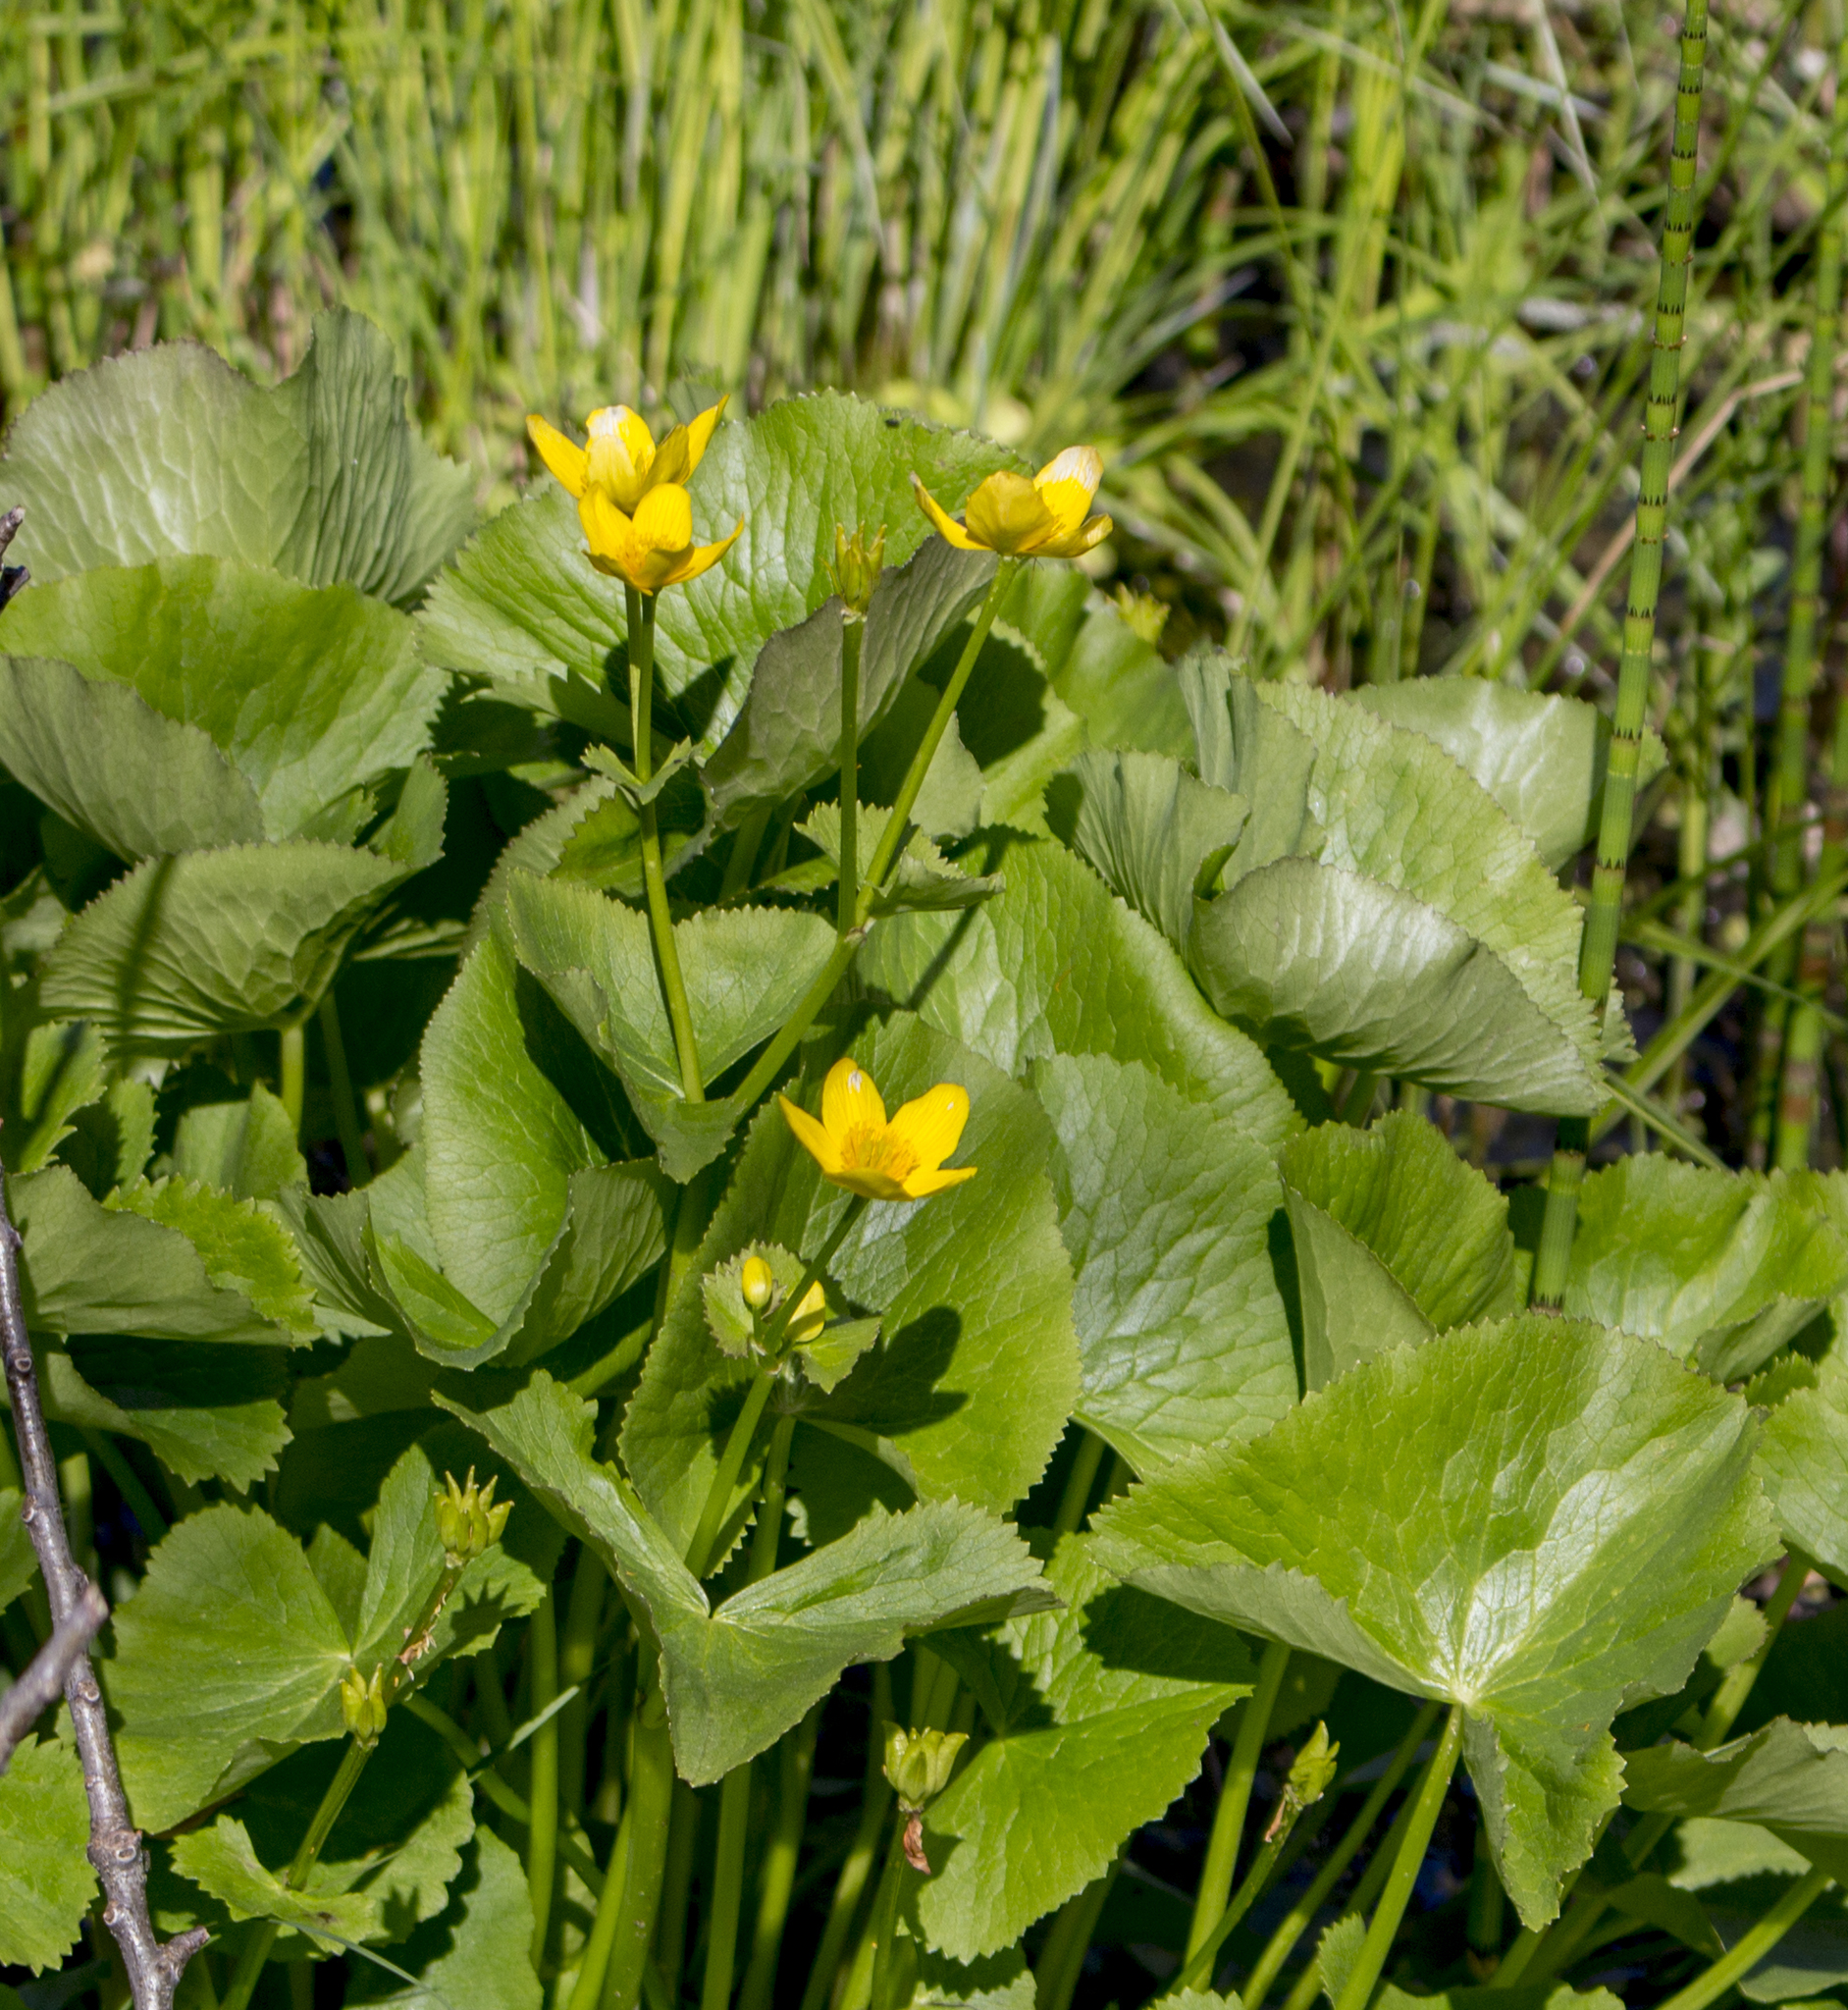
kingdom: Plantae
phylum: Tracheophyta
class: Magnoliopsida
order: Ranunculales
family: Ranunculaceae
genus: Caltha
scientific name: Caltha palustris
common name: Marsh marigold
